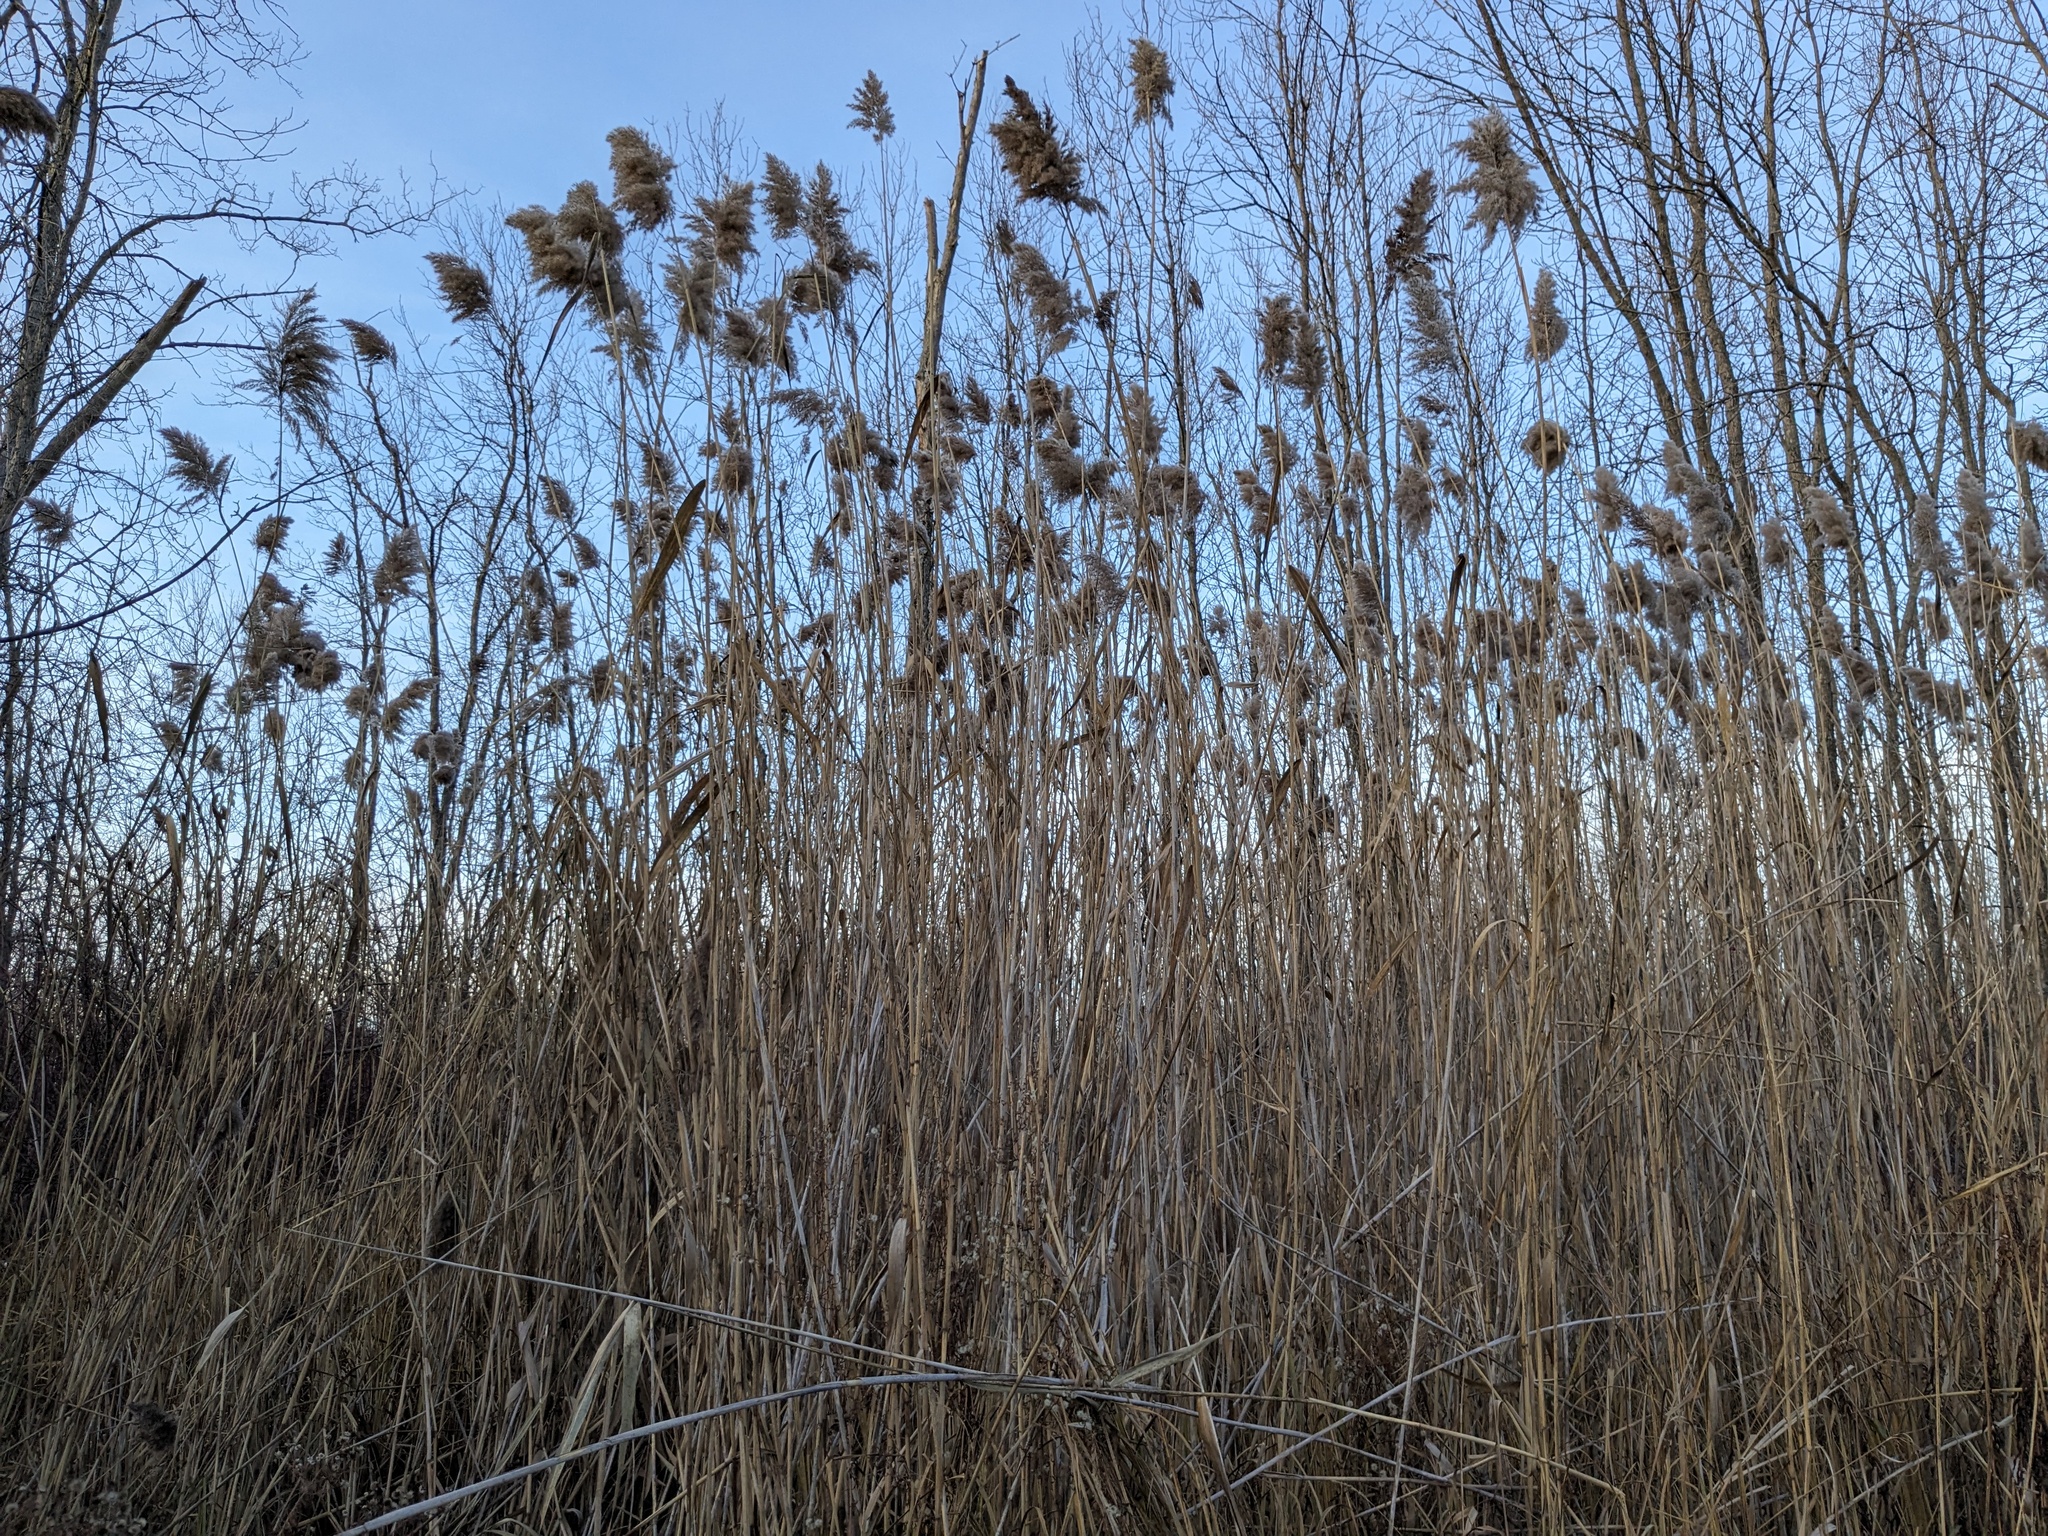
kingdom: Plantae
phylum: Tracheophyta
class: Liliopsida
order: Poales
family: Poaceae
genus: Phragmites
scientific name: Phragmites australis
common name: Common reed
